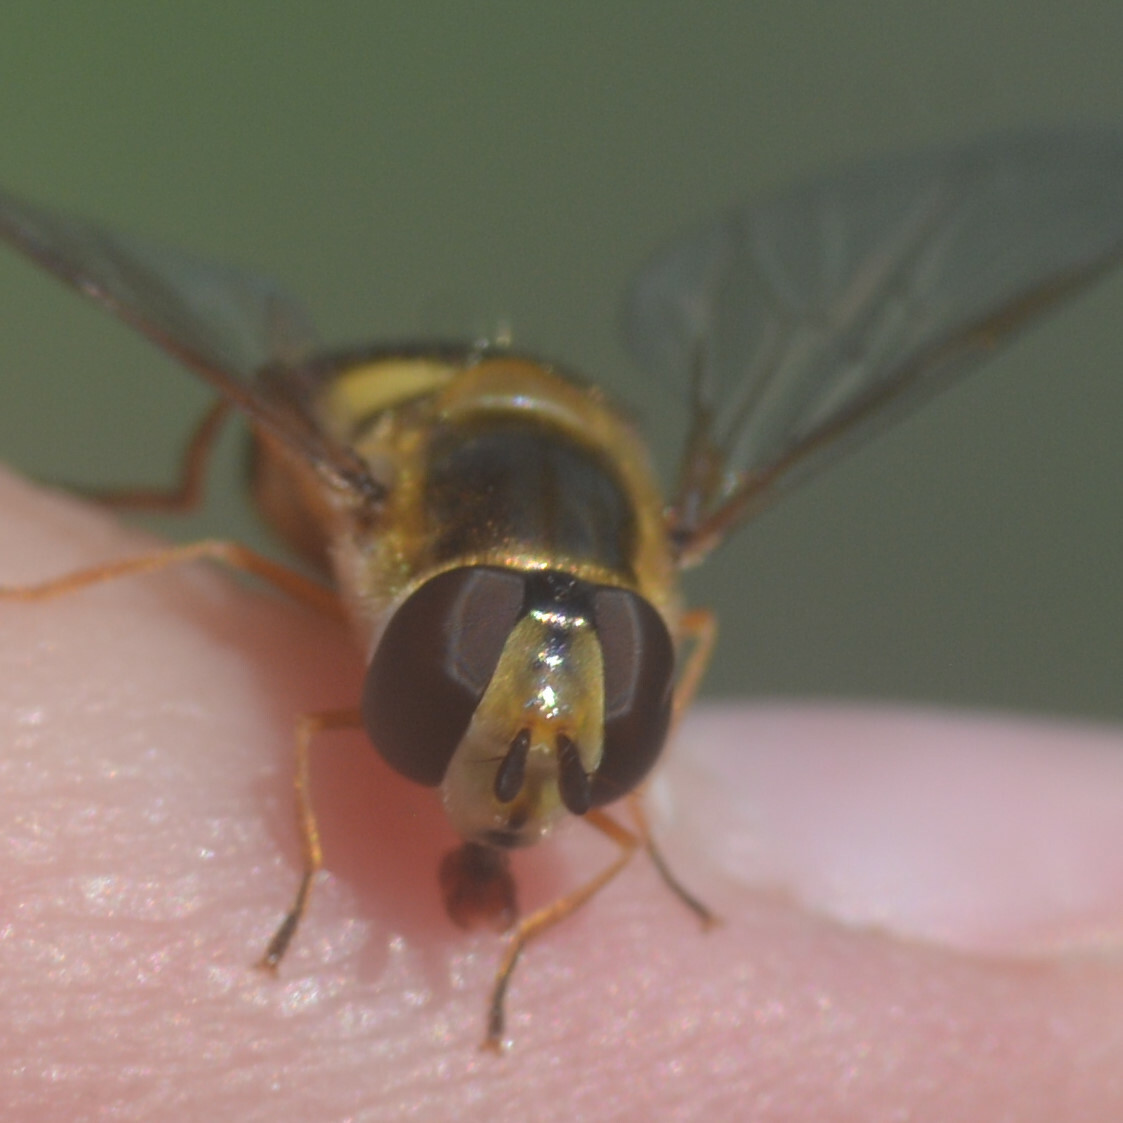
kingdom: Animalia
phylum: Arthropoda
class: Insecta
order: Diptera
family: Syrphidae
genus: Eupeodes
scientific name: Eupeodes luniger
